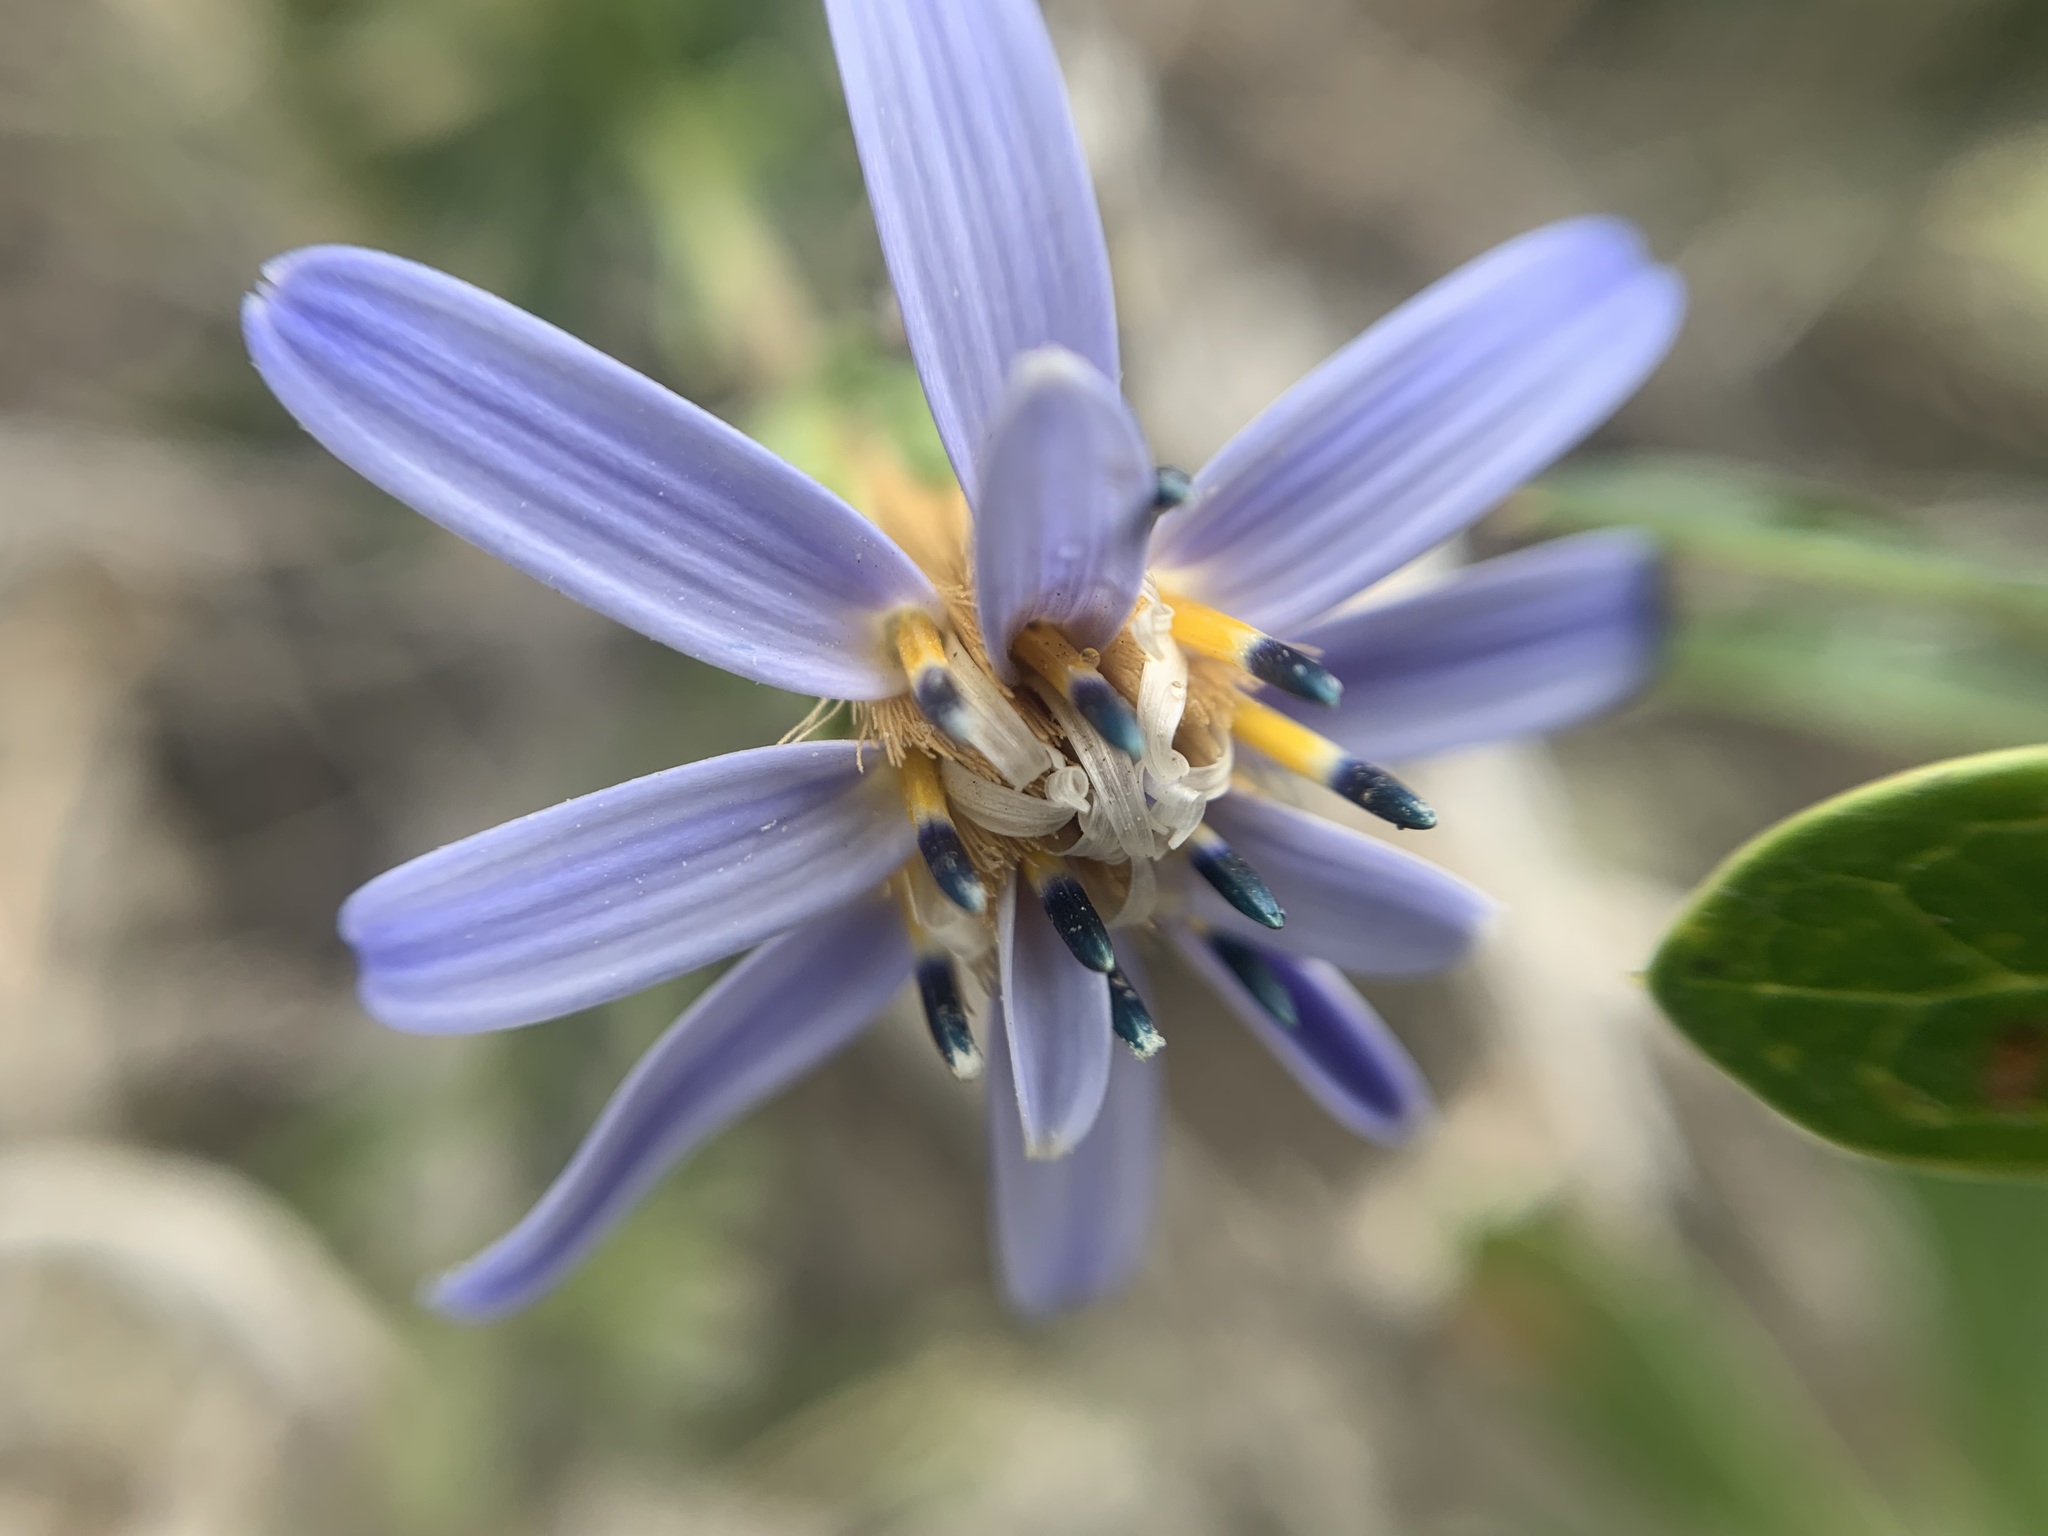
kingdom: Plantae
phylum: Tracheophyta
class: Magnoliopsida
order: Asterales
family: Asteraceae
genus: Perezia
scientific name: Perezia recurvata
